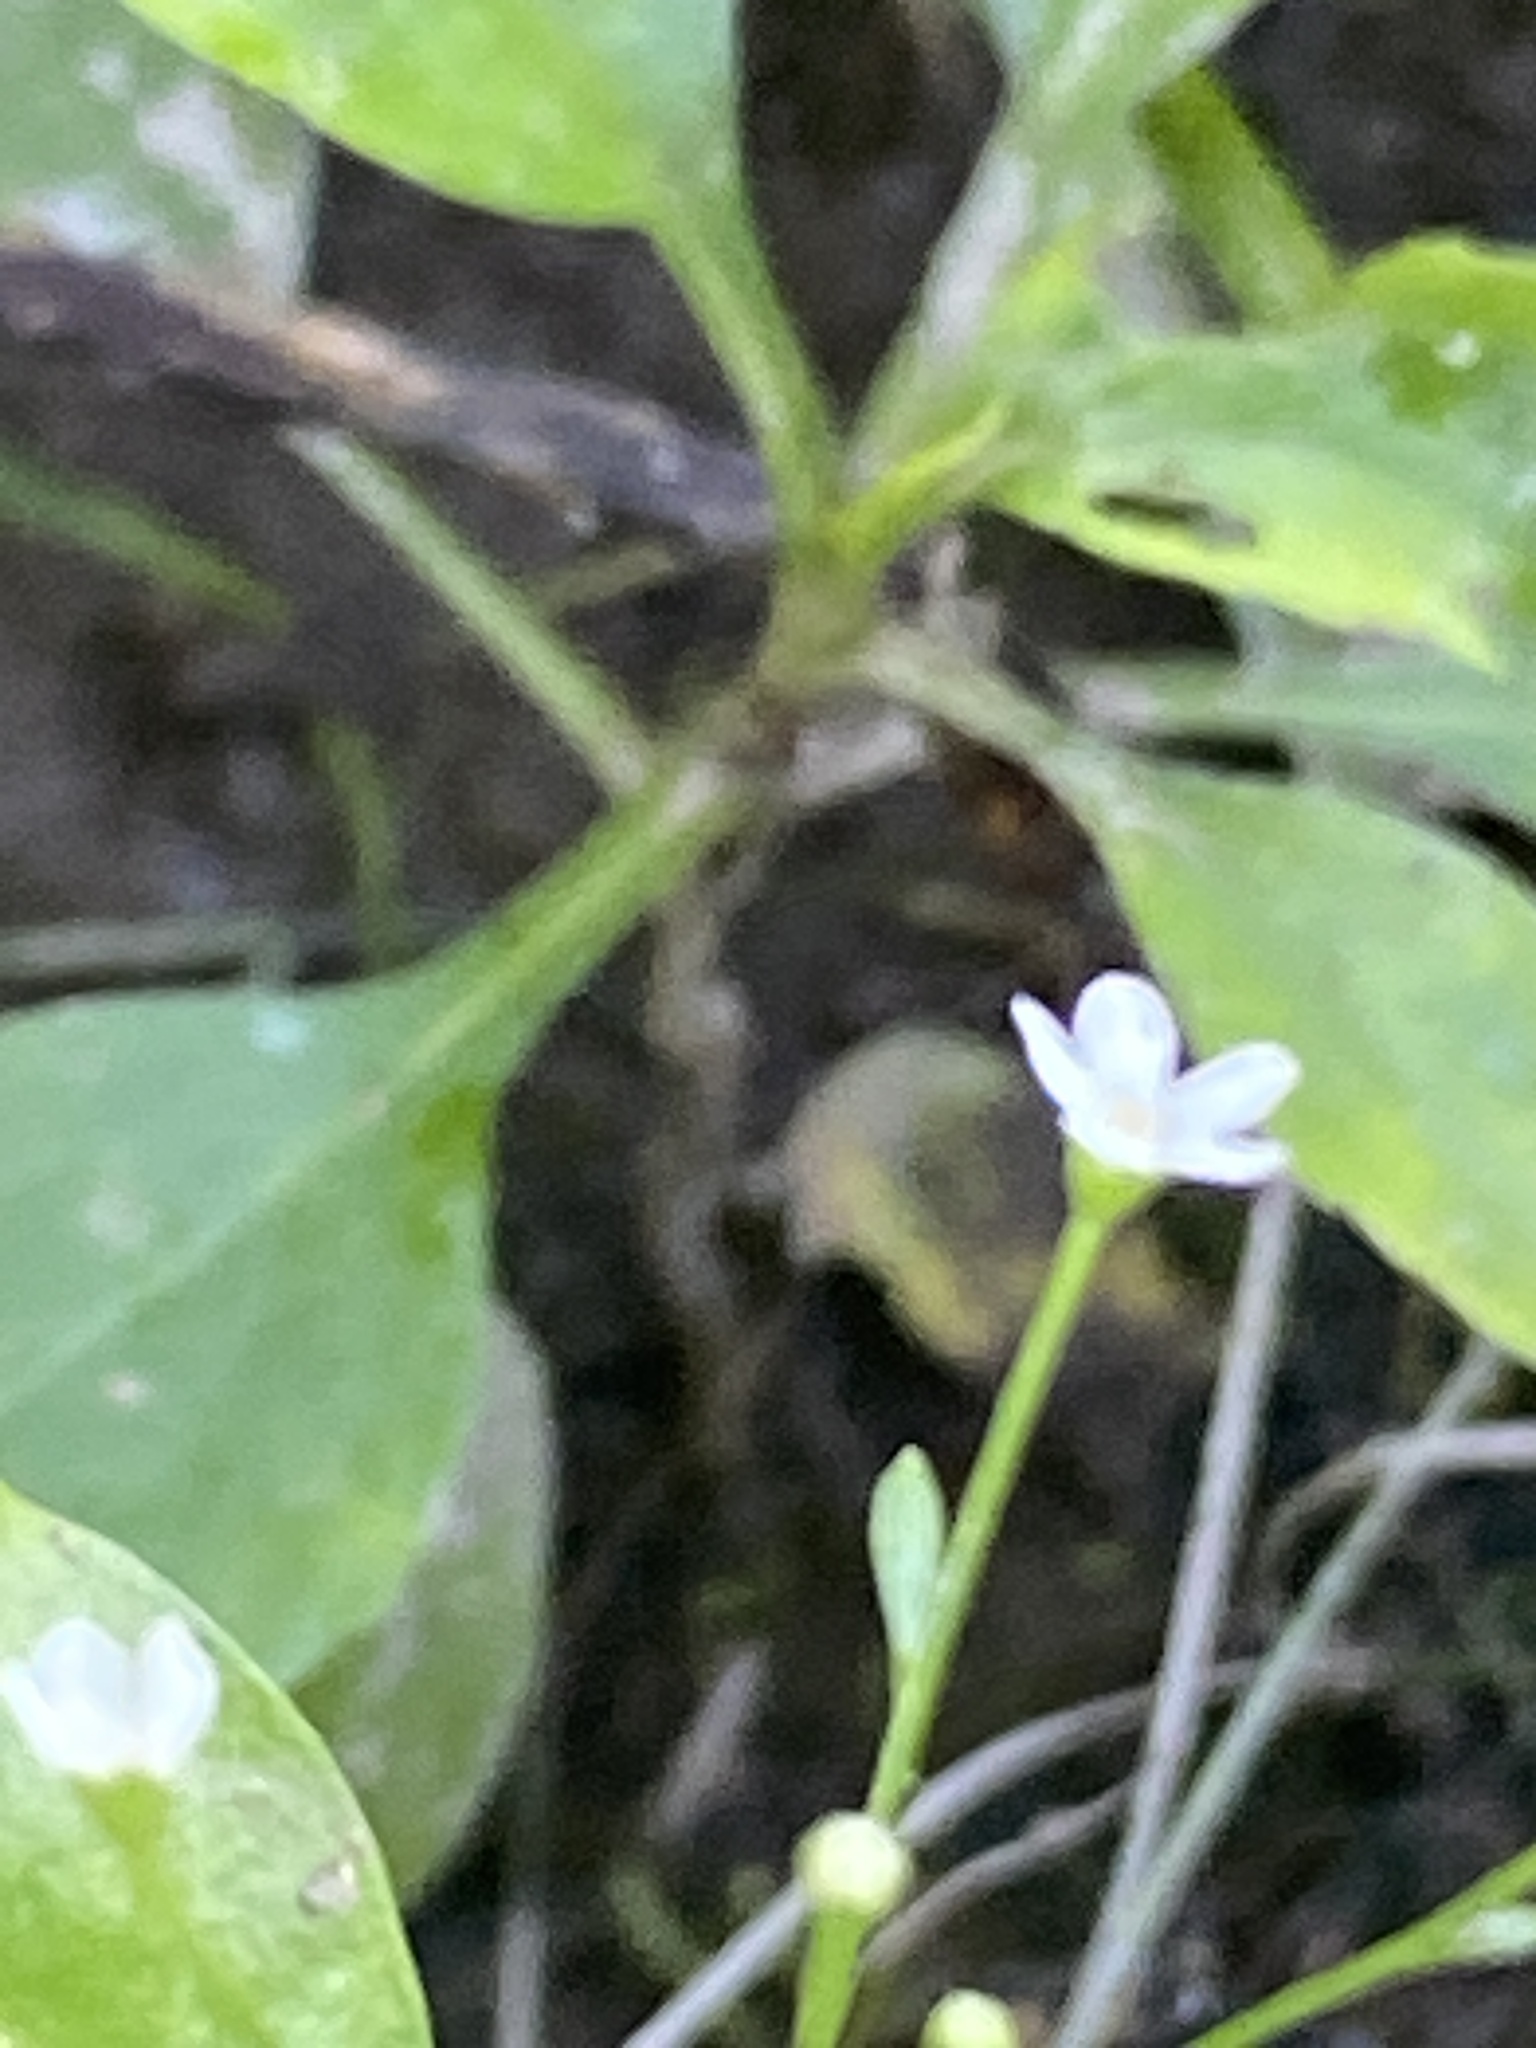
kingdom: Plantae
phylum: Tracheophyta
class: Magnoliopsida
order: Ericales
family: Primulaceae
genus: Samolus
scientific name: Samolus parviflorus
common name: False water pimpernel
